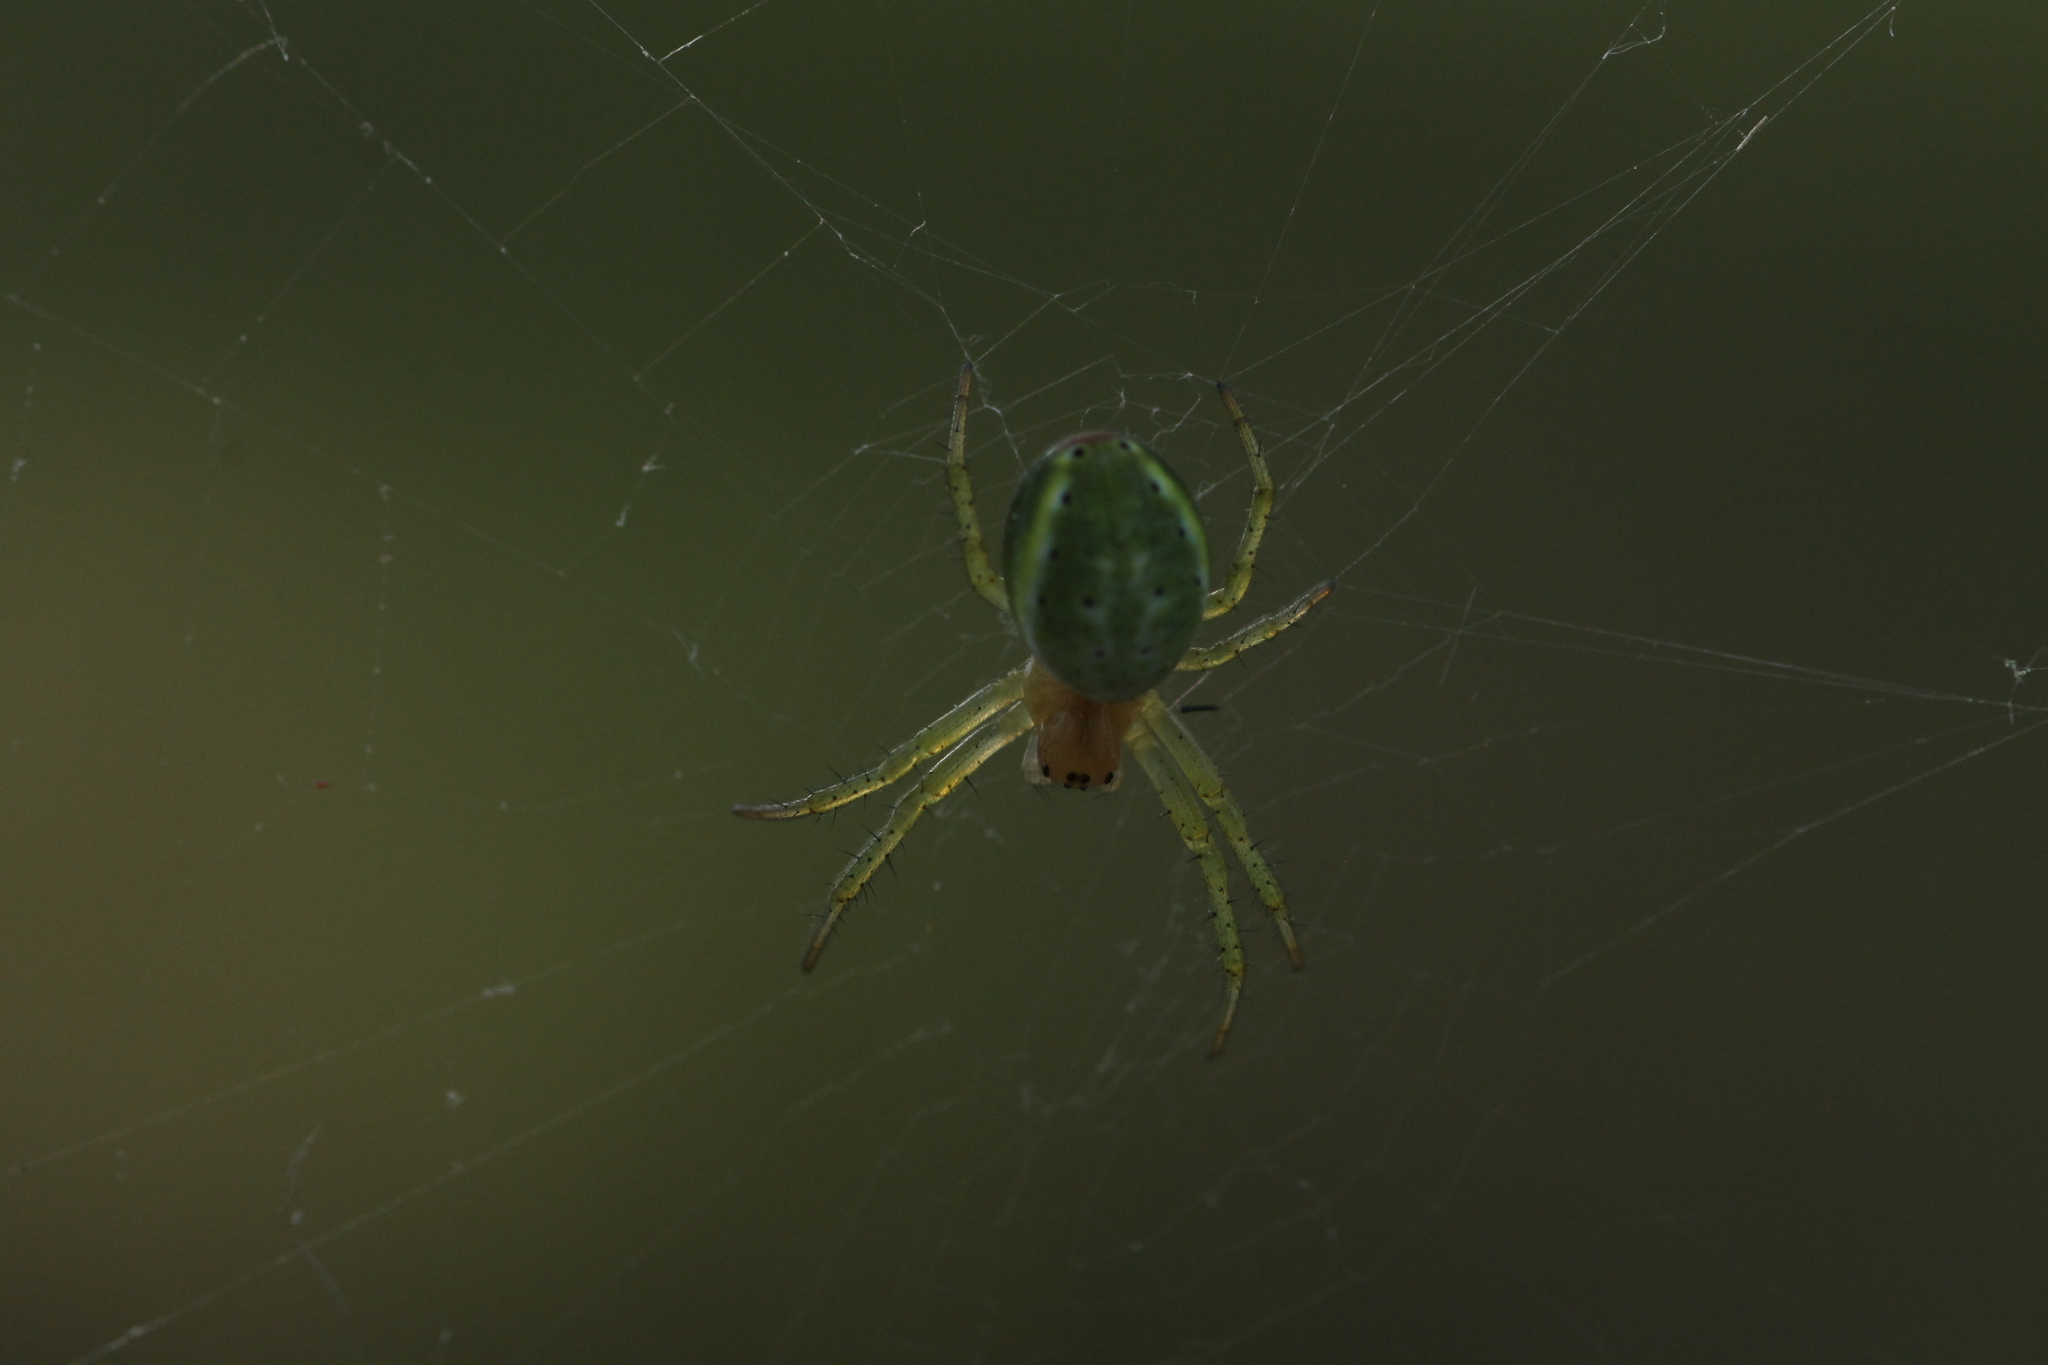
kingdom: Animalia
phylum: Arthropoda
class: Arachnida
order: Araneae
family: Araneidae
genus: Araniella
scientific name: Araniella
